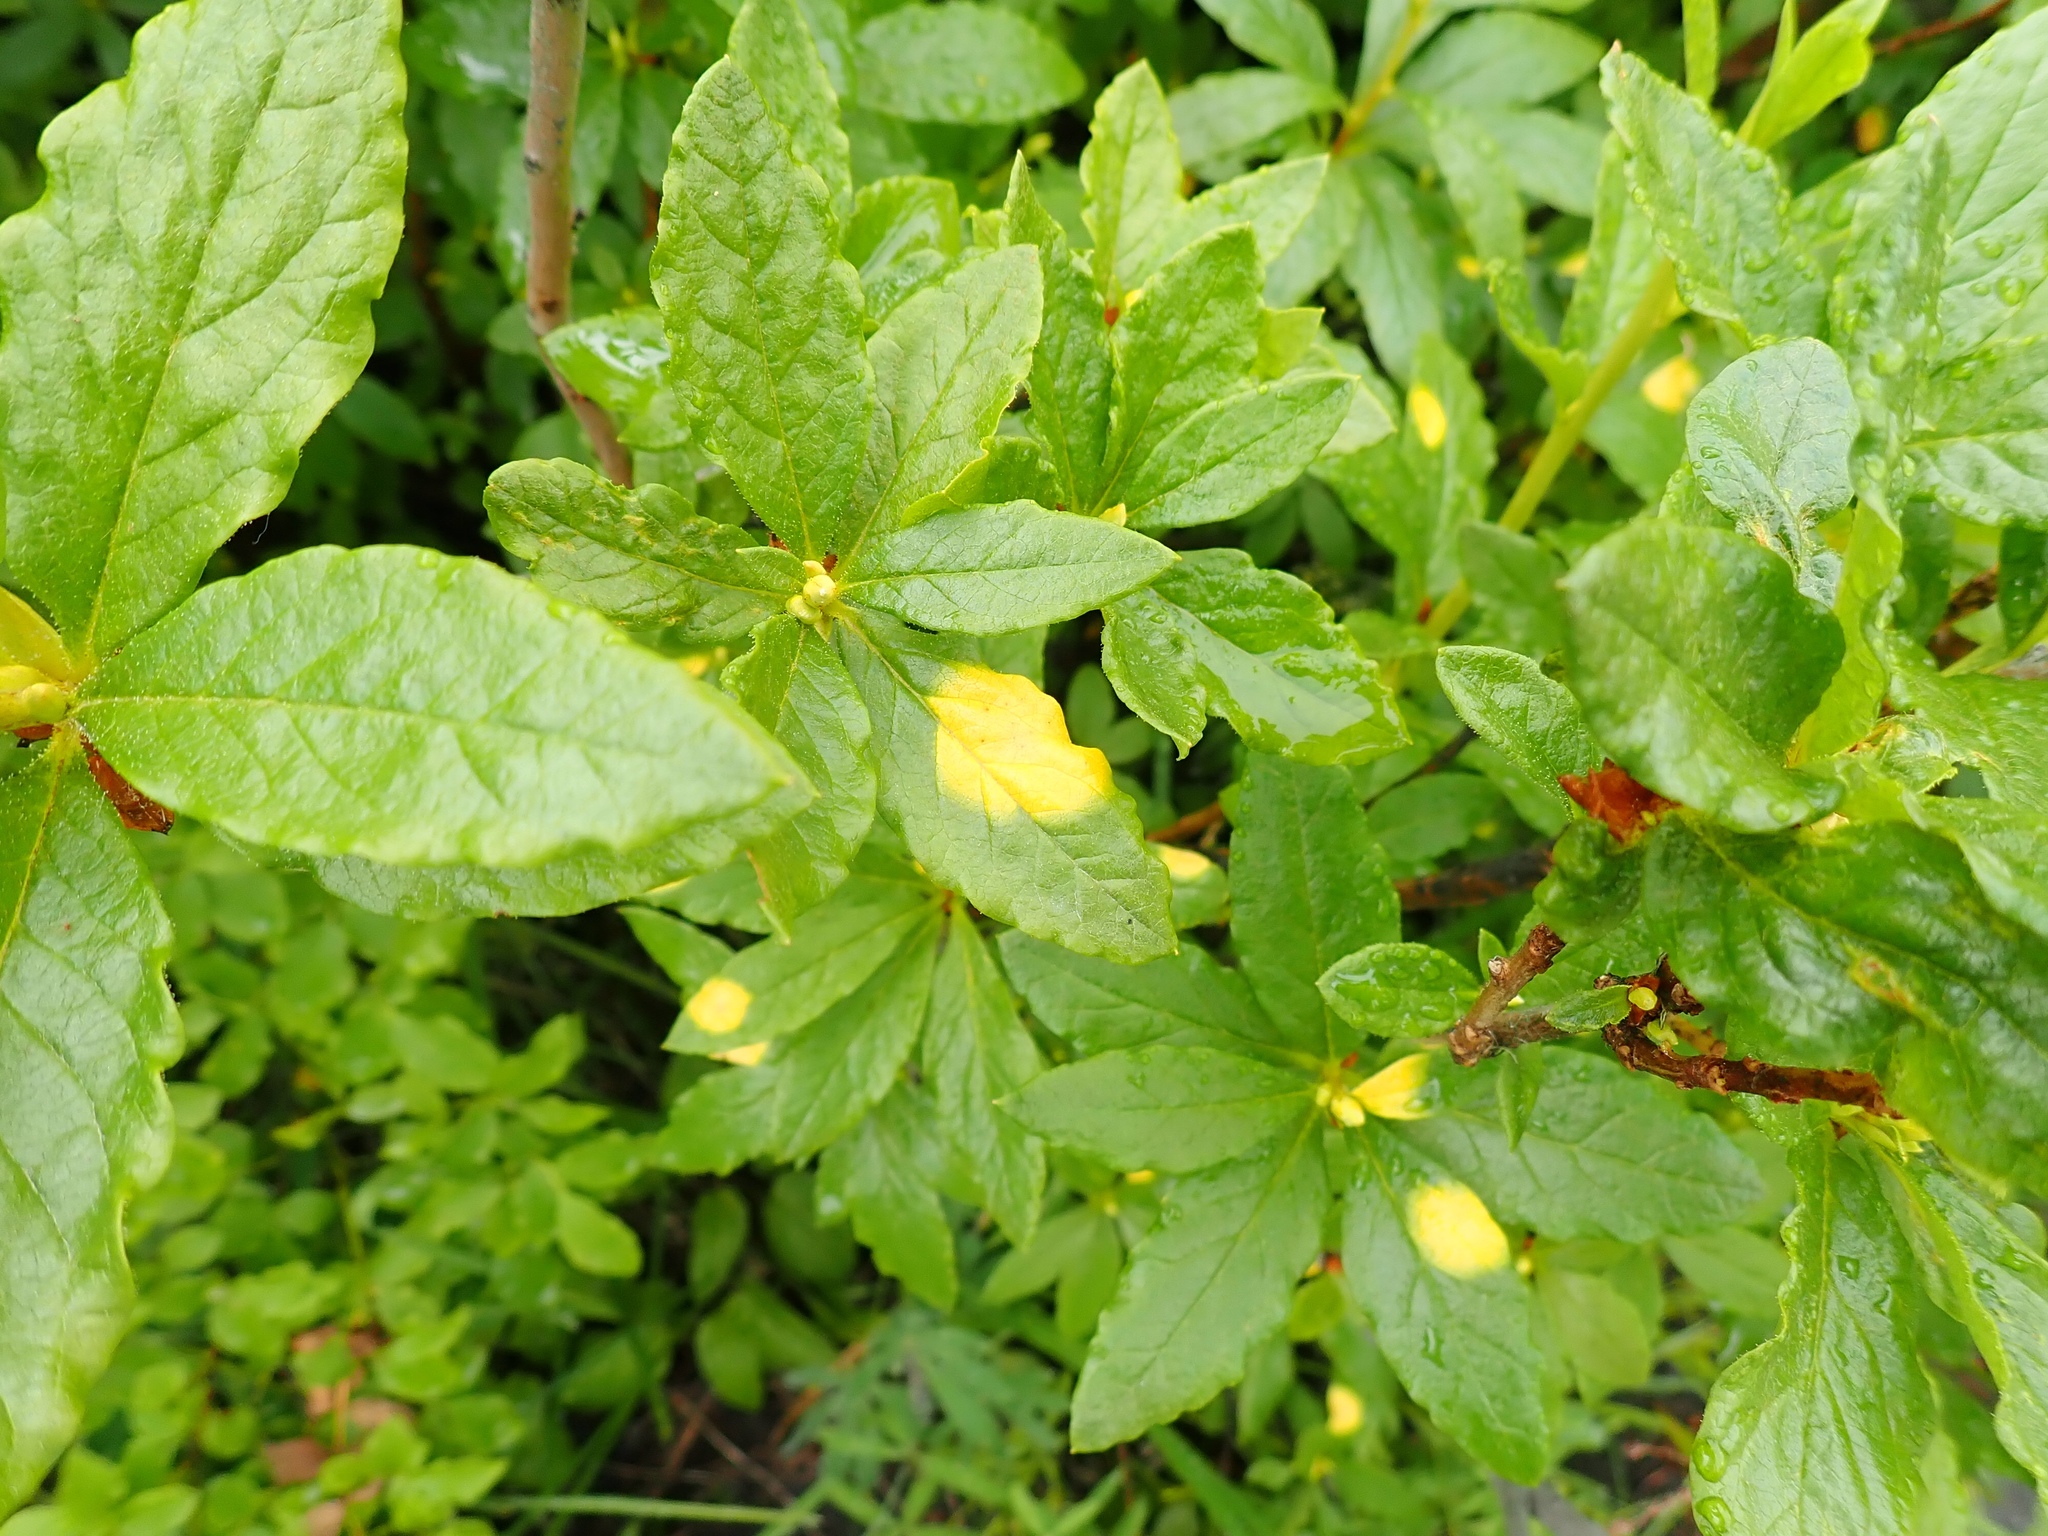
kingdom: Fungi
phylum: Basidiomycota
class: Exobasidiomycetes
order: Exobasidiales
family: Exobasidiaceae
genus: Exobasidium
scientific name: Exobasidium burtii
